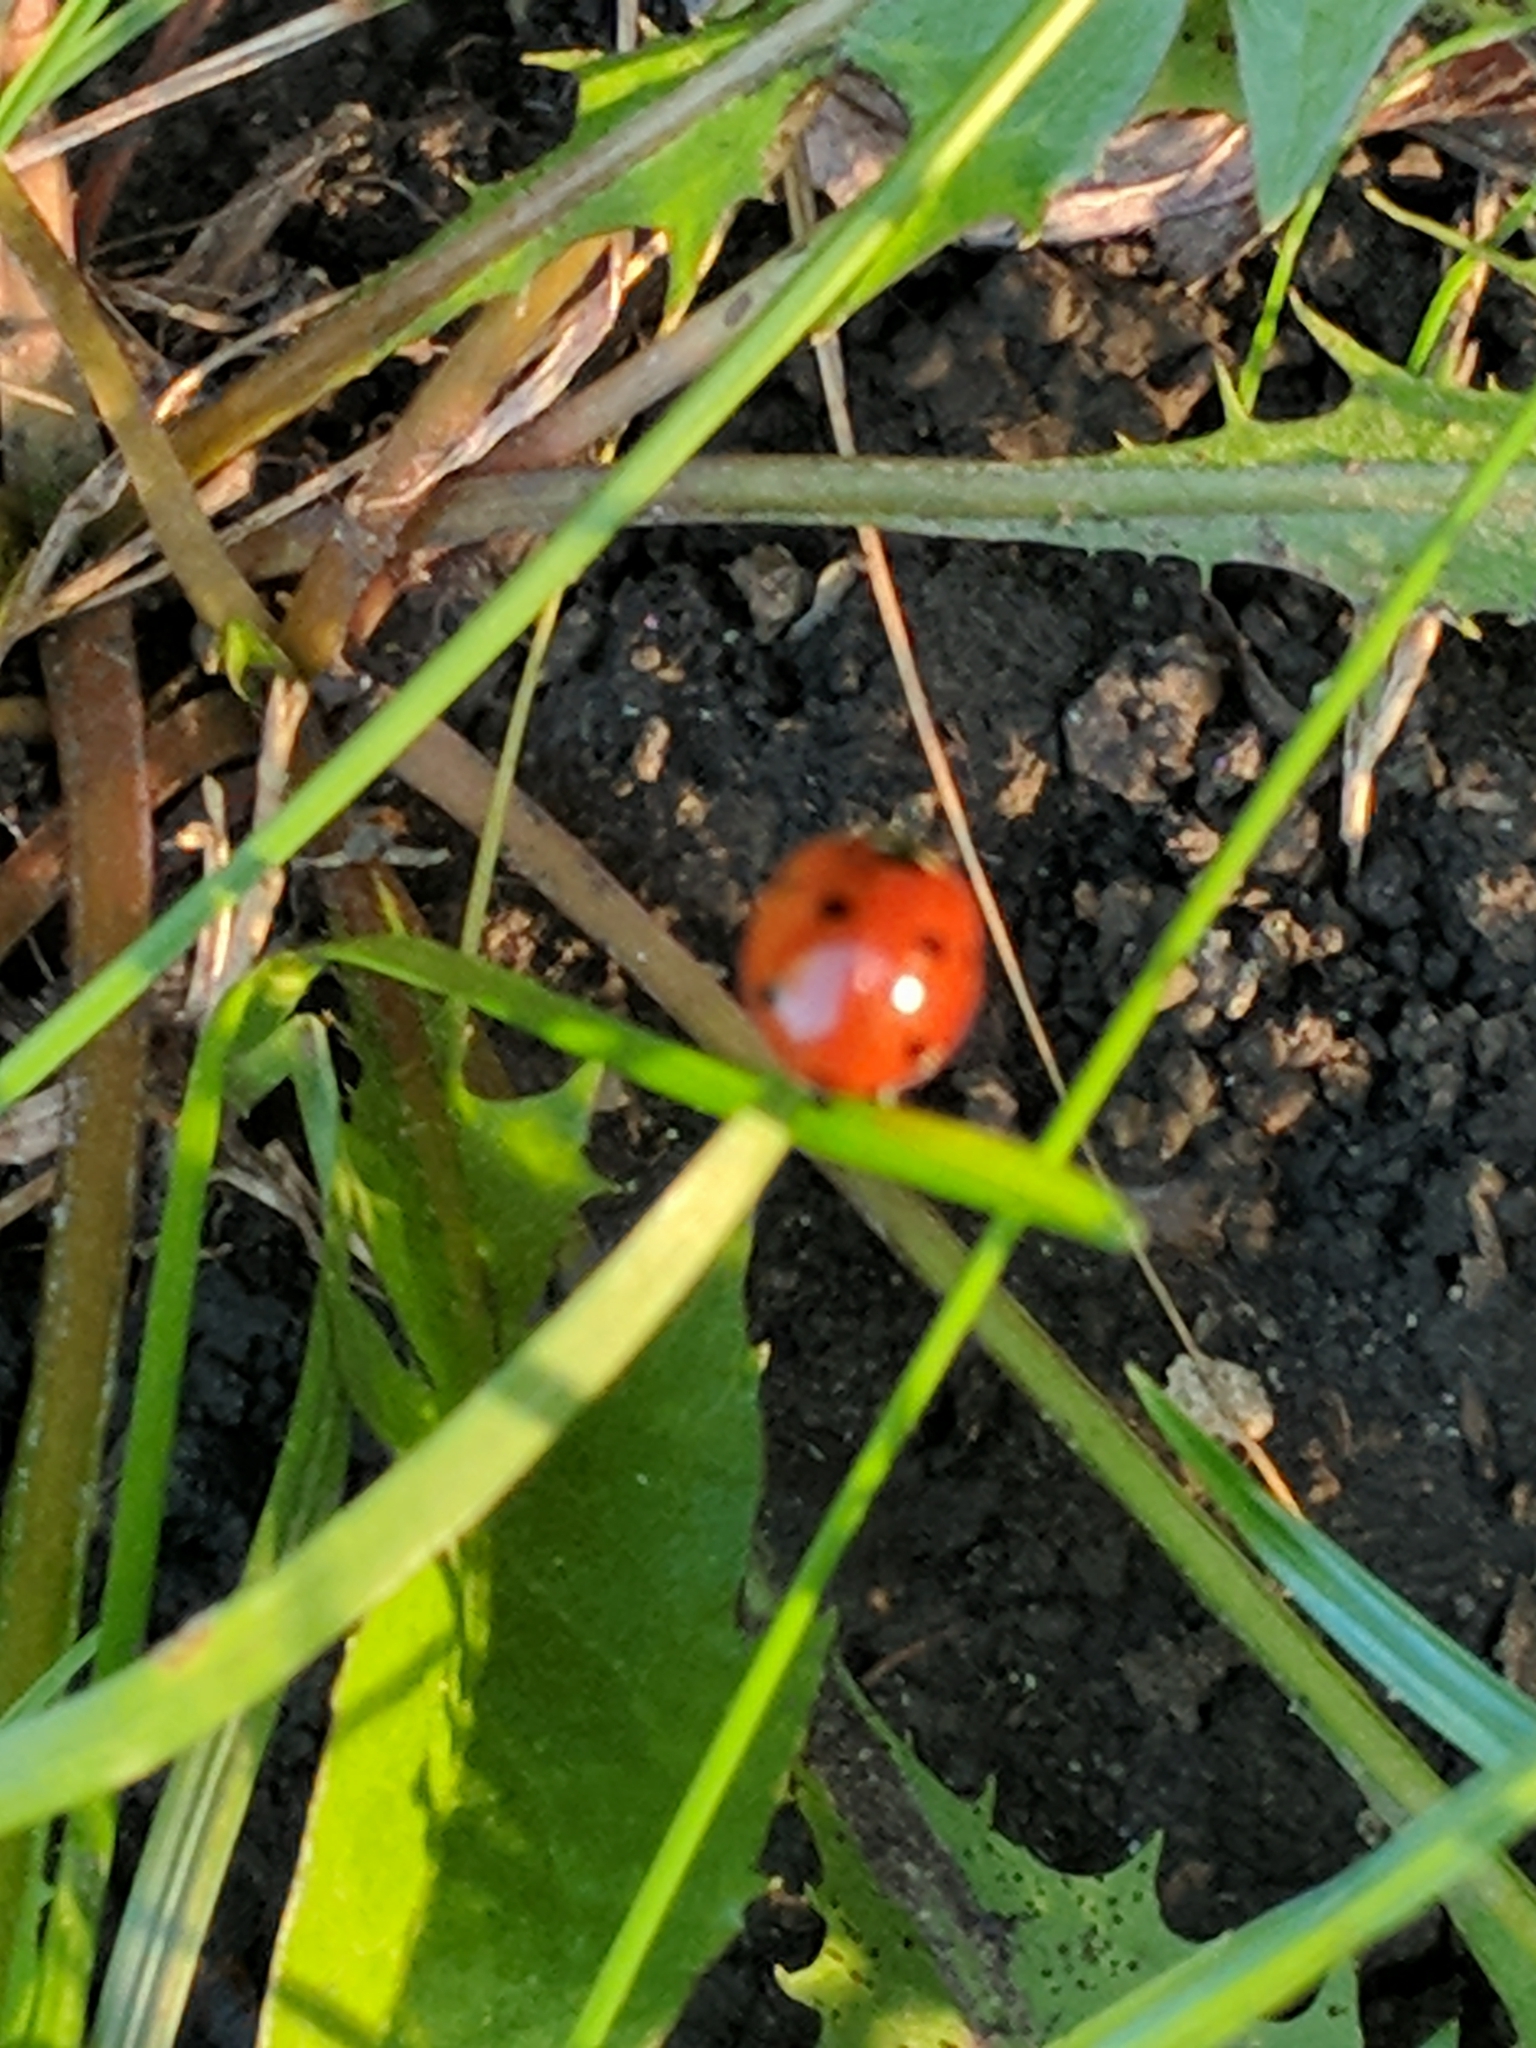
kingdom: Animalia
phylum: Arthropoda
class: Insecta
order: Coleoptera
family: Coccinellidae
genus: Coccinella
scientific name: Coccinella septempunctata
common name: Sevenspotted lady beetle
